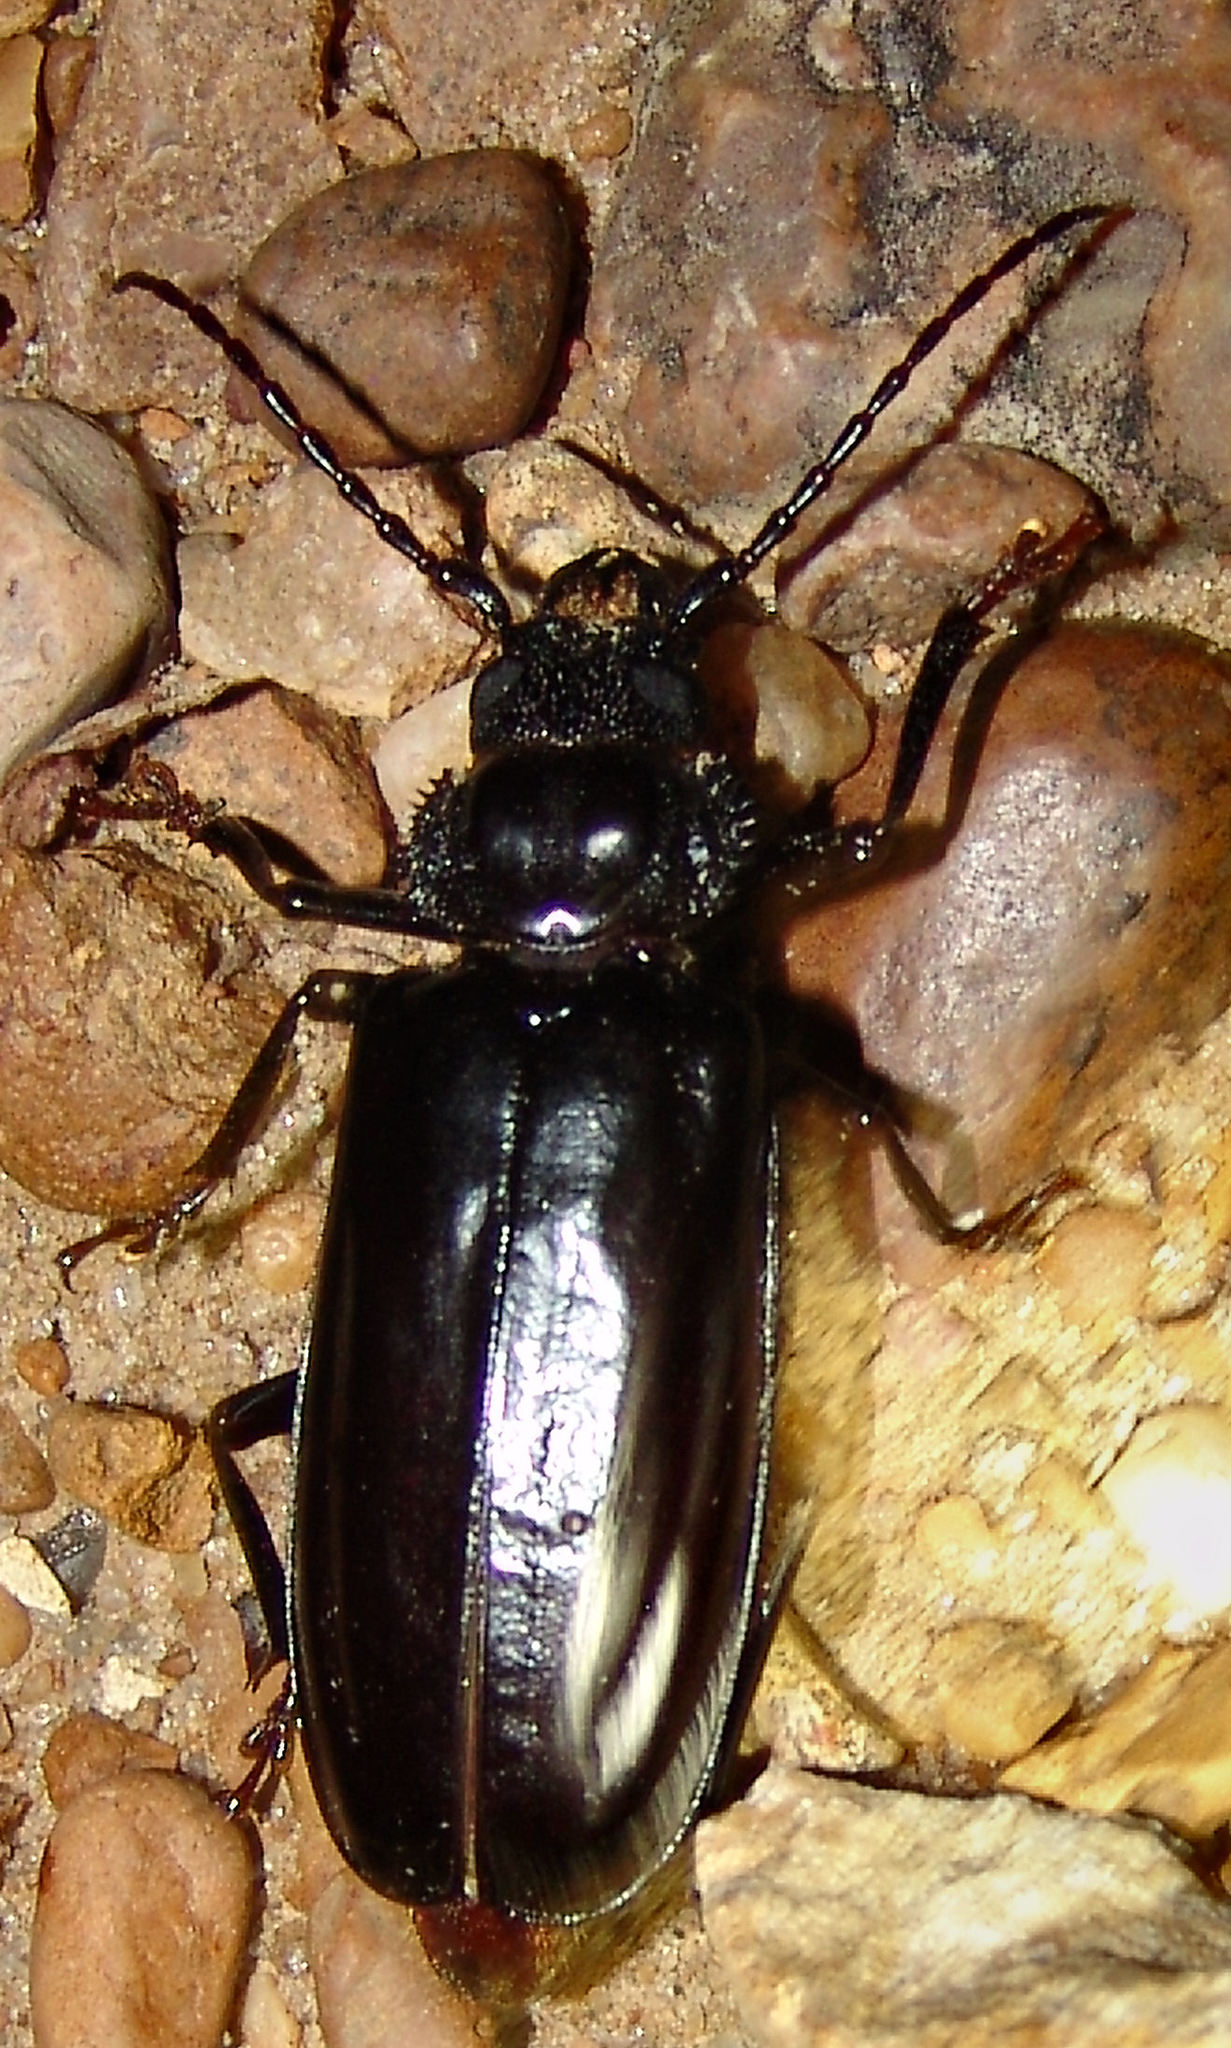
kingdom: Animalia
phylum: Arthropoda
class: Insecta
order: Coleoptera
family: Cerambycidae
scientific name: Cerambycidae
